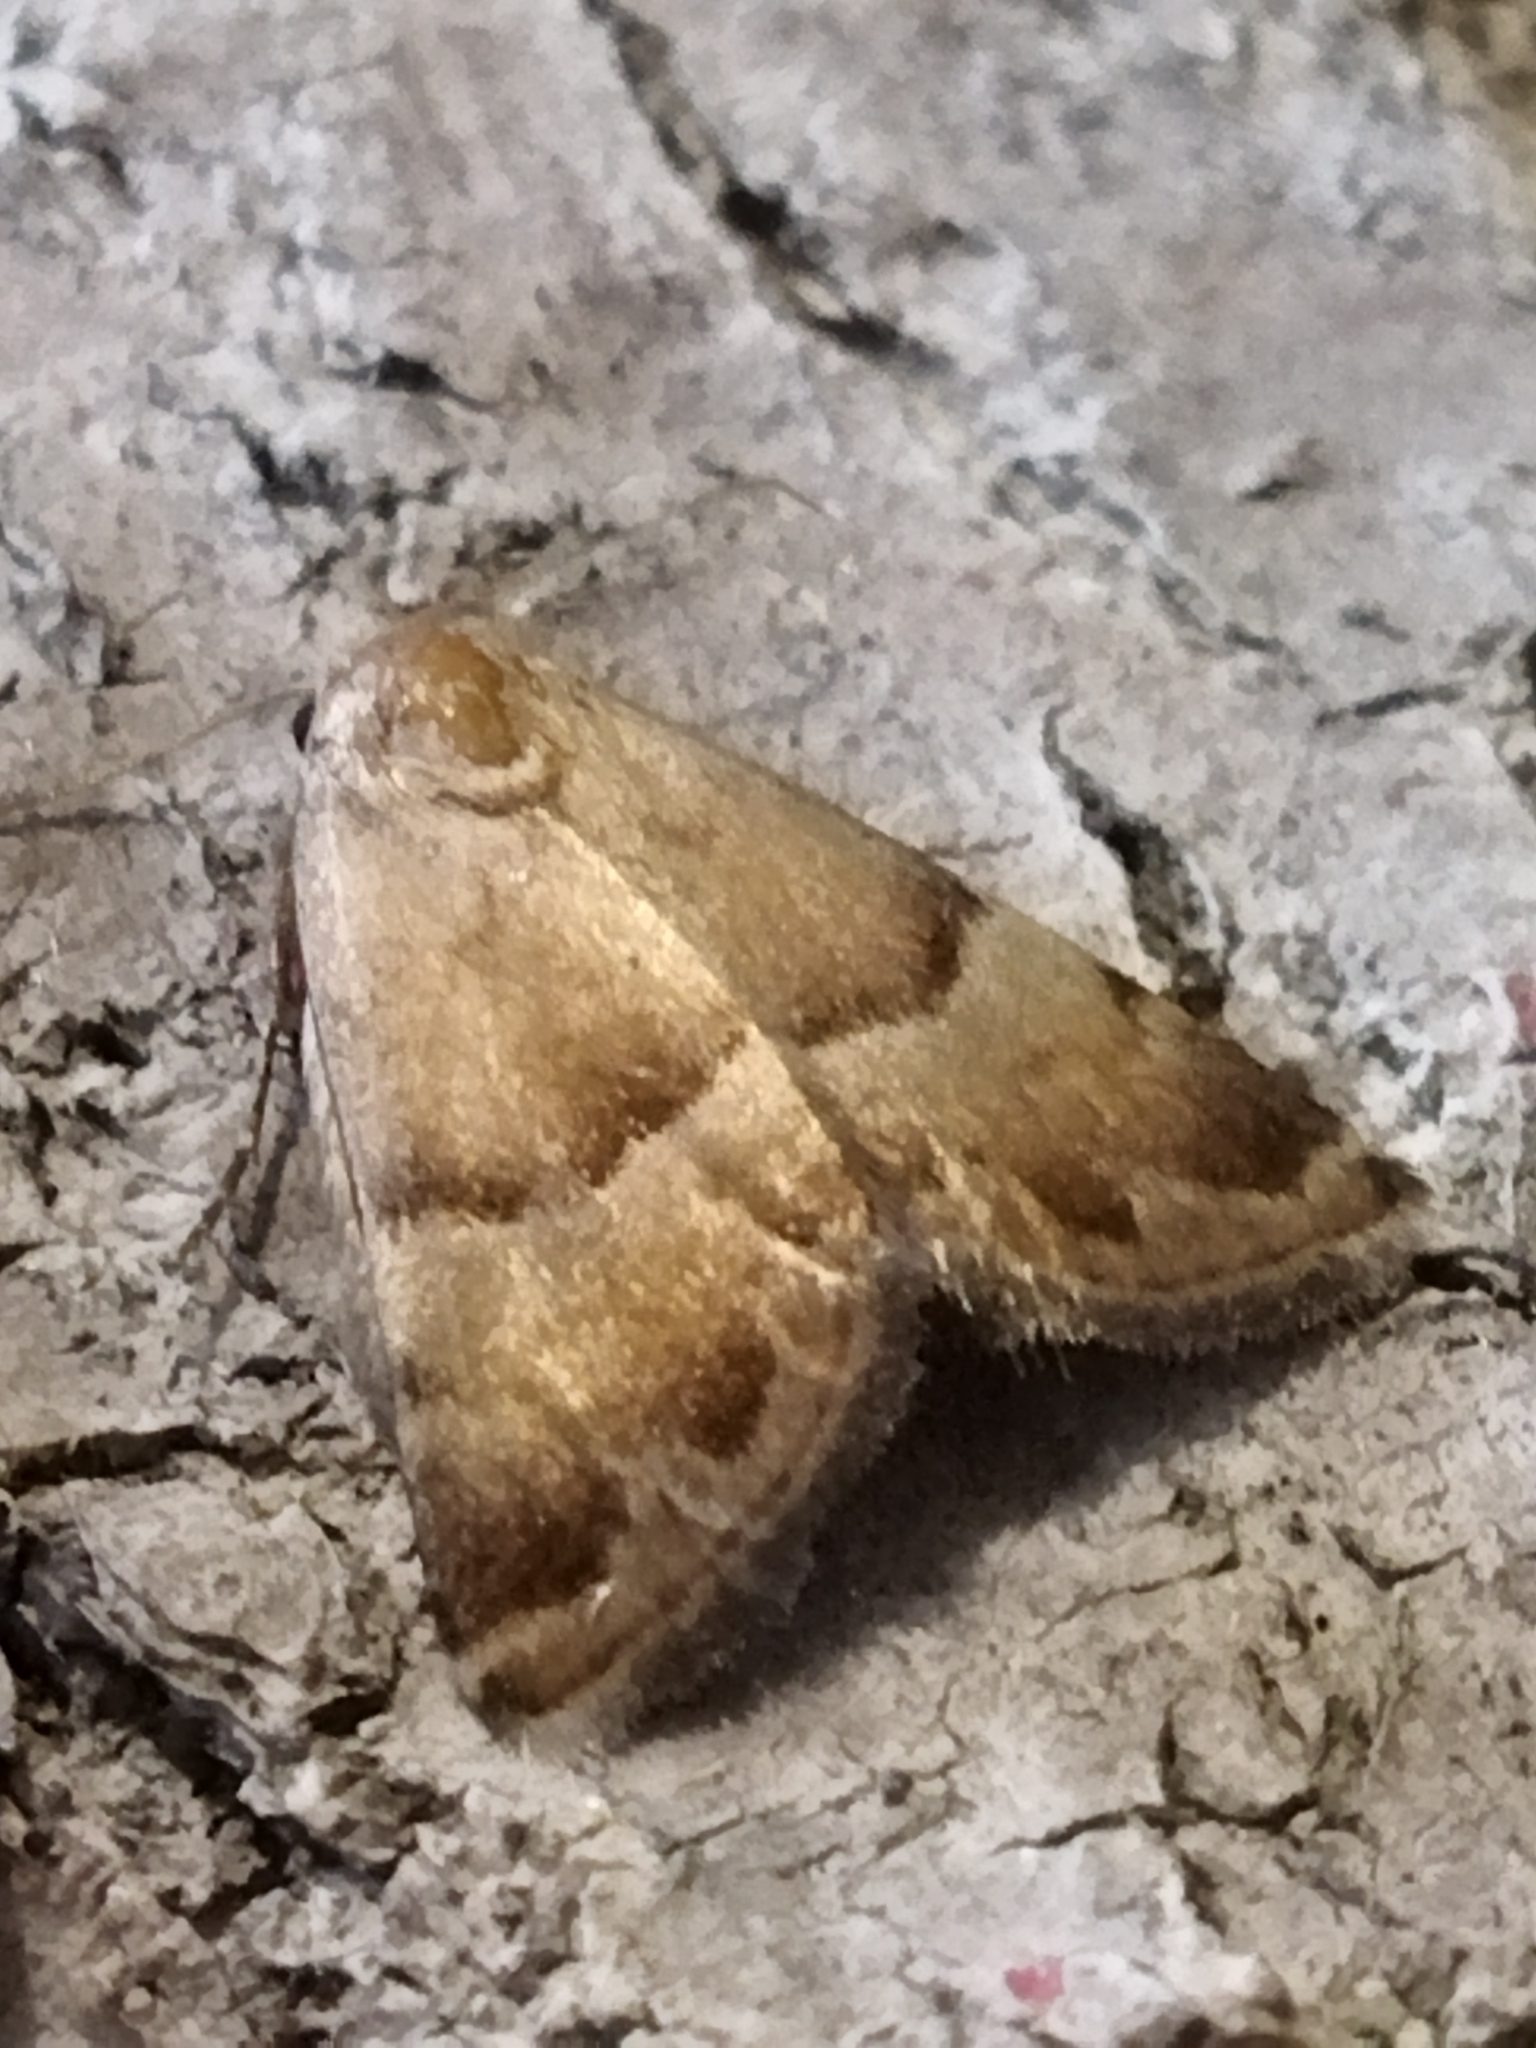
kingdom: Animalia
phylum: Arthropoda
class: Insecta
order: Lepidoptera
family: Noctuidae
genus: Odice
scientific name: Odice suava
